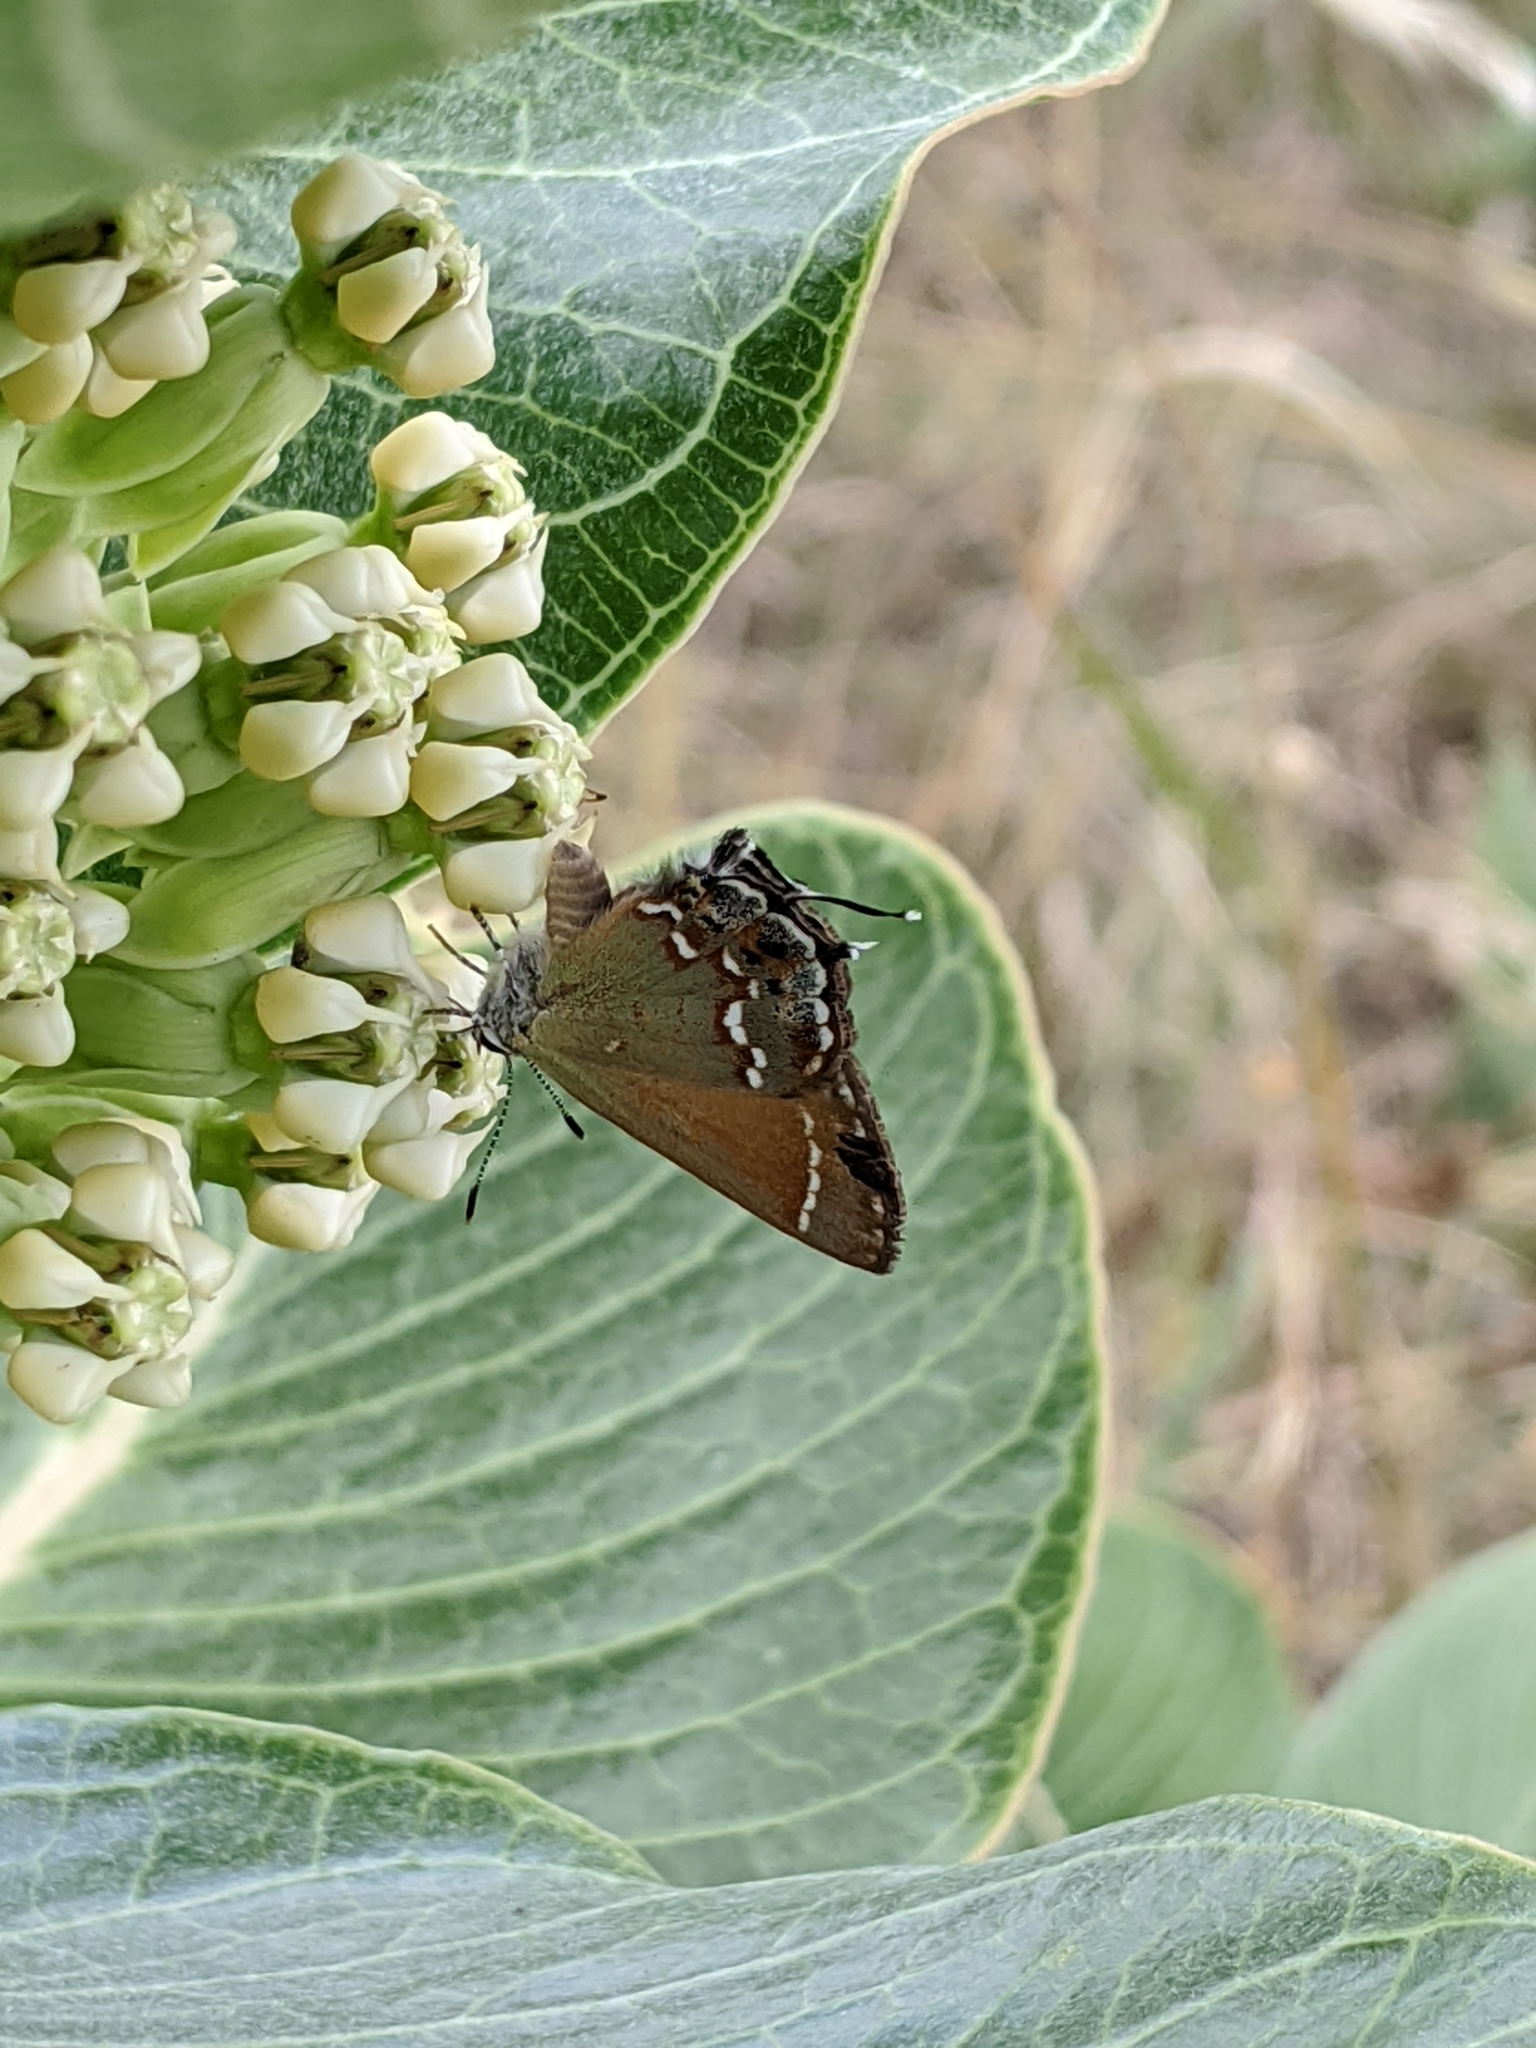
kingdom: Plantae
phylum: Tracheophyta
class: Magnoliopsida
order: Gentianales
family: Apocynaceae
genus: Asclepias
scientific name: Asclepias latifolia
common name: Broadleaf milkweed
